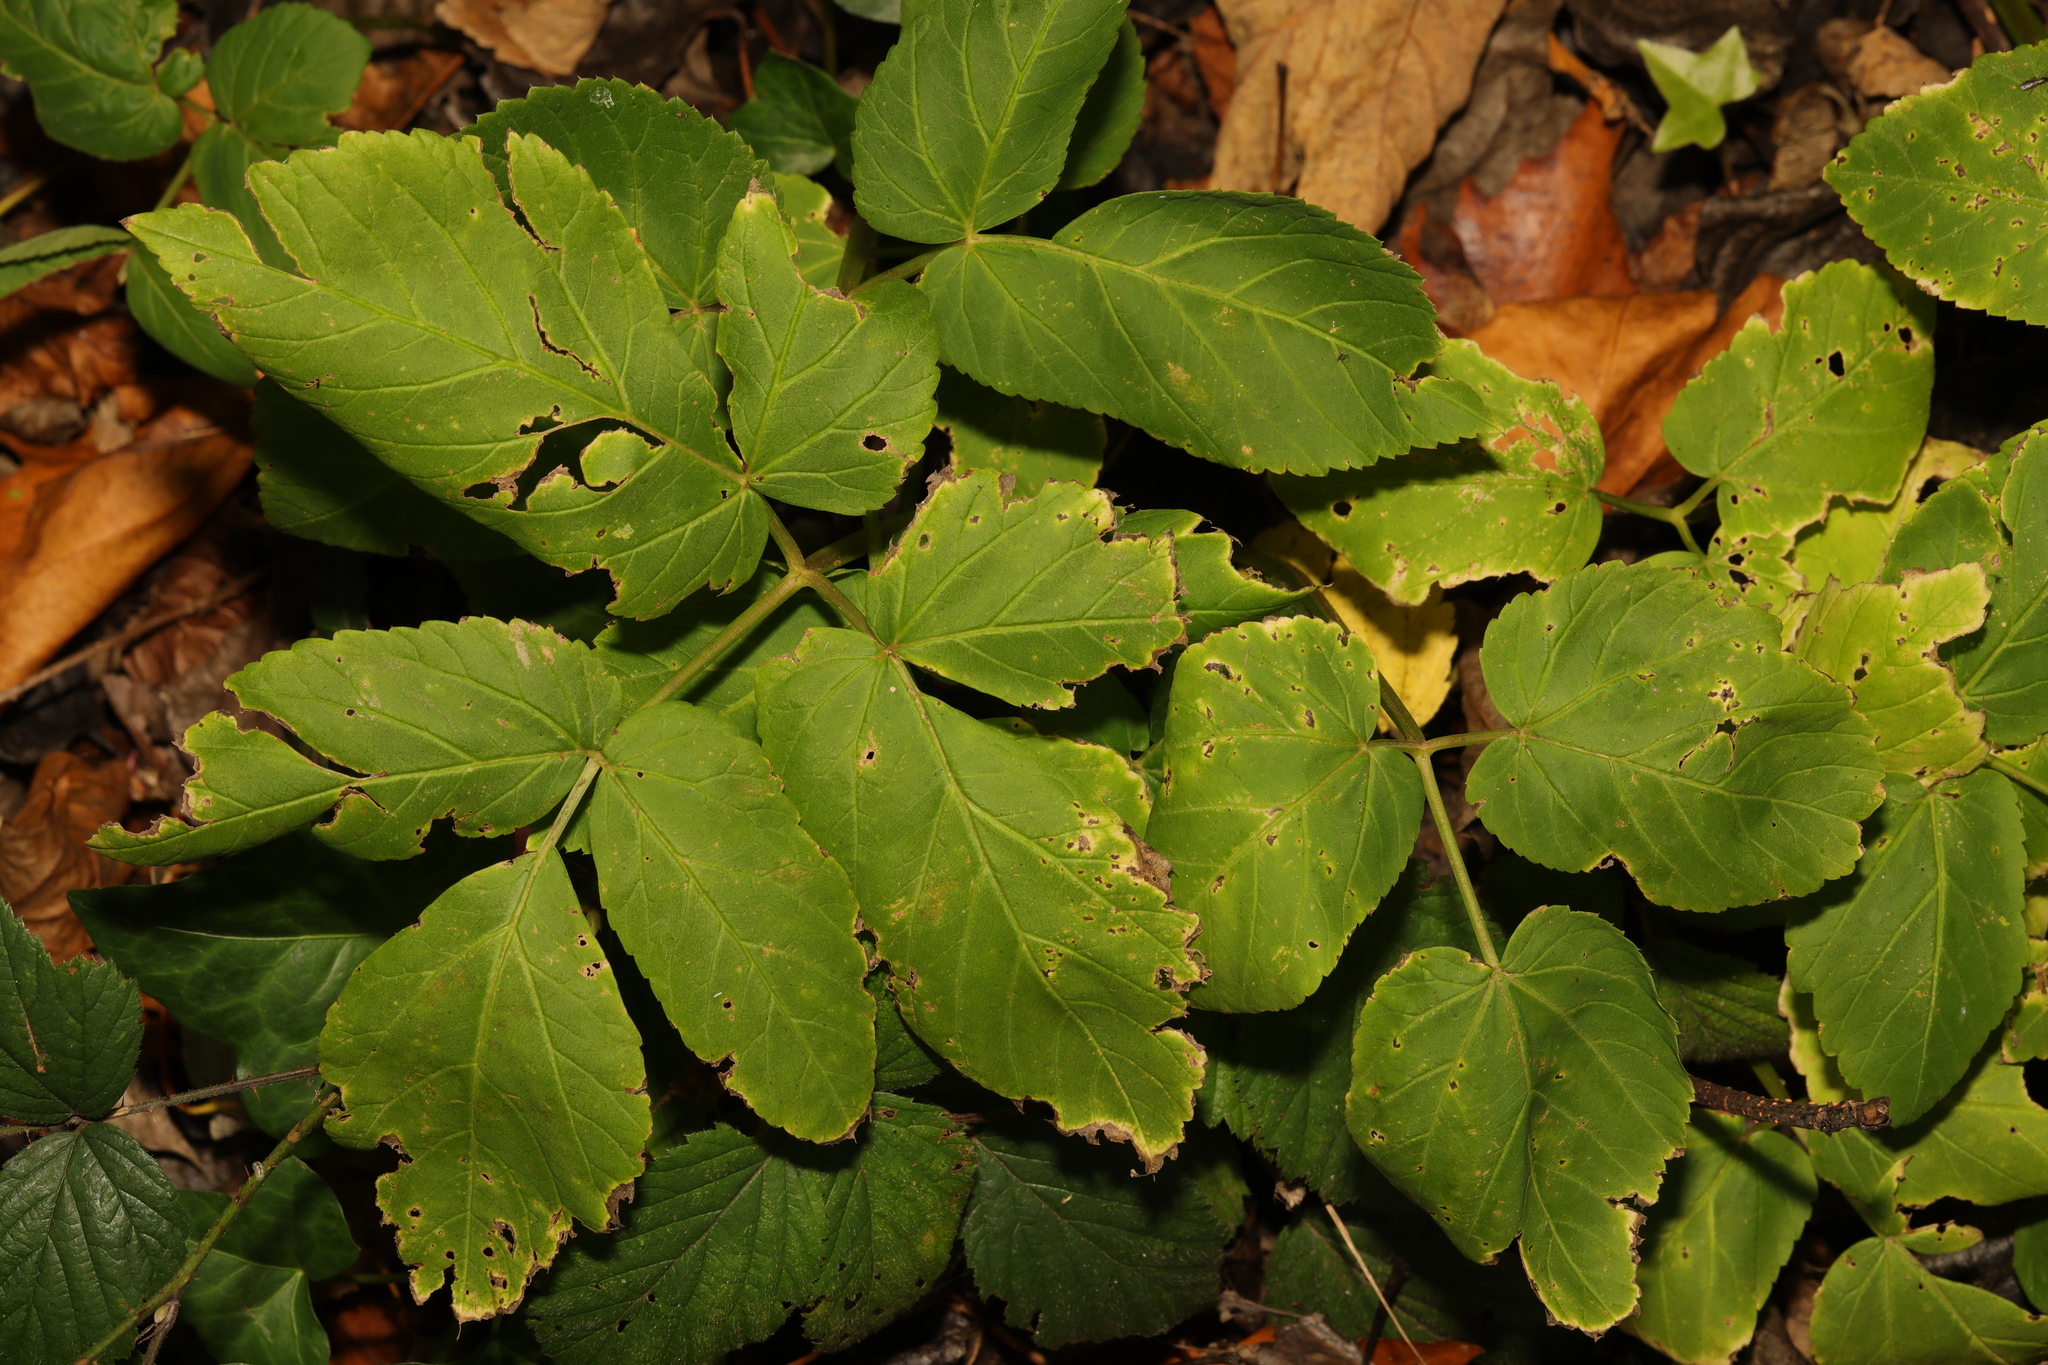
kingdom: Plantae
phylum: Tracheophyta
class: Magnoliopsida
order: Apiales
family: Apiaceae
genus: Aegopodium
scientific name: Aegopodium podagraria
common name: Ground-elder
